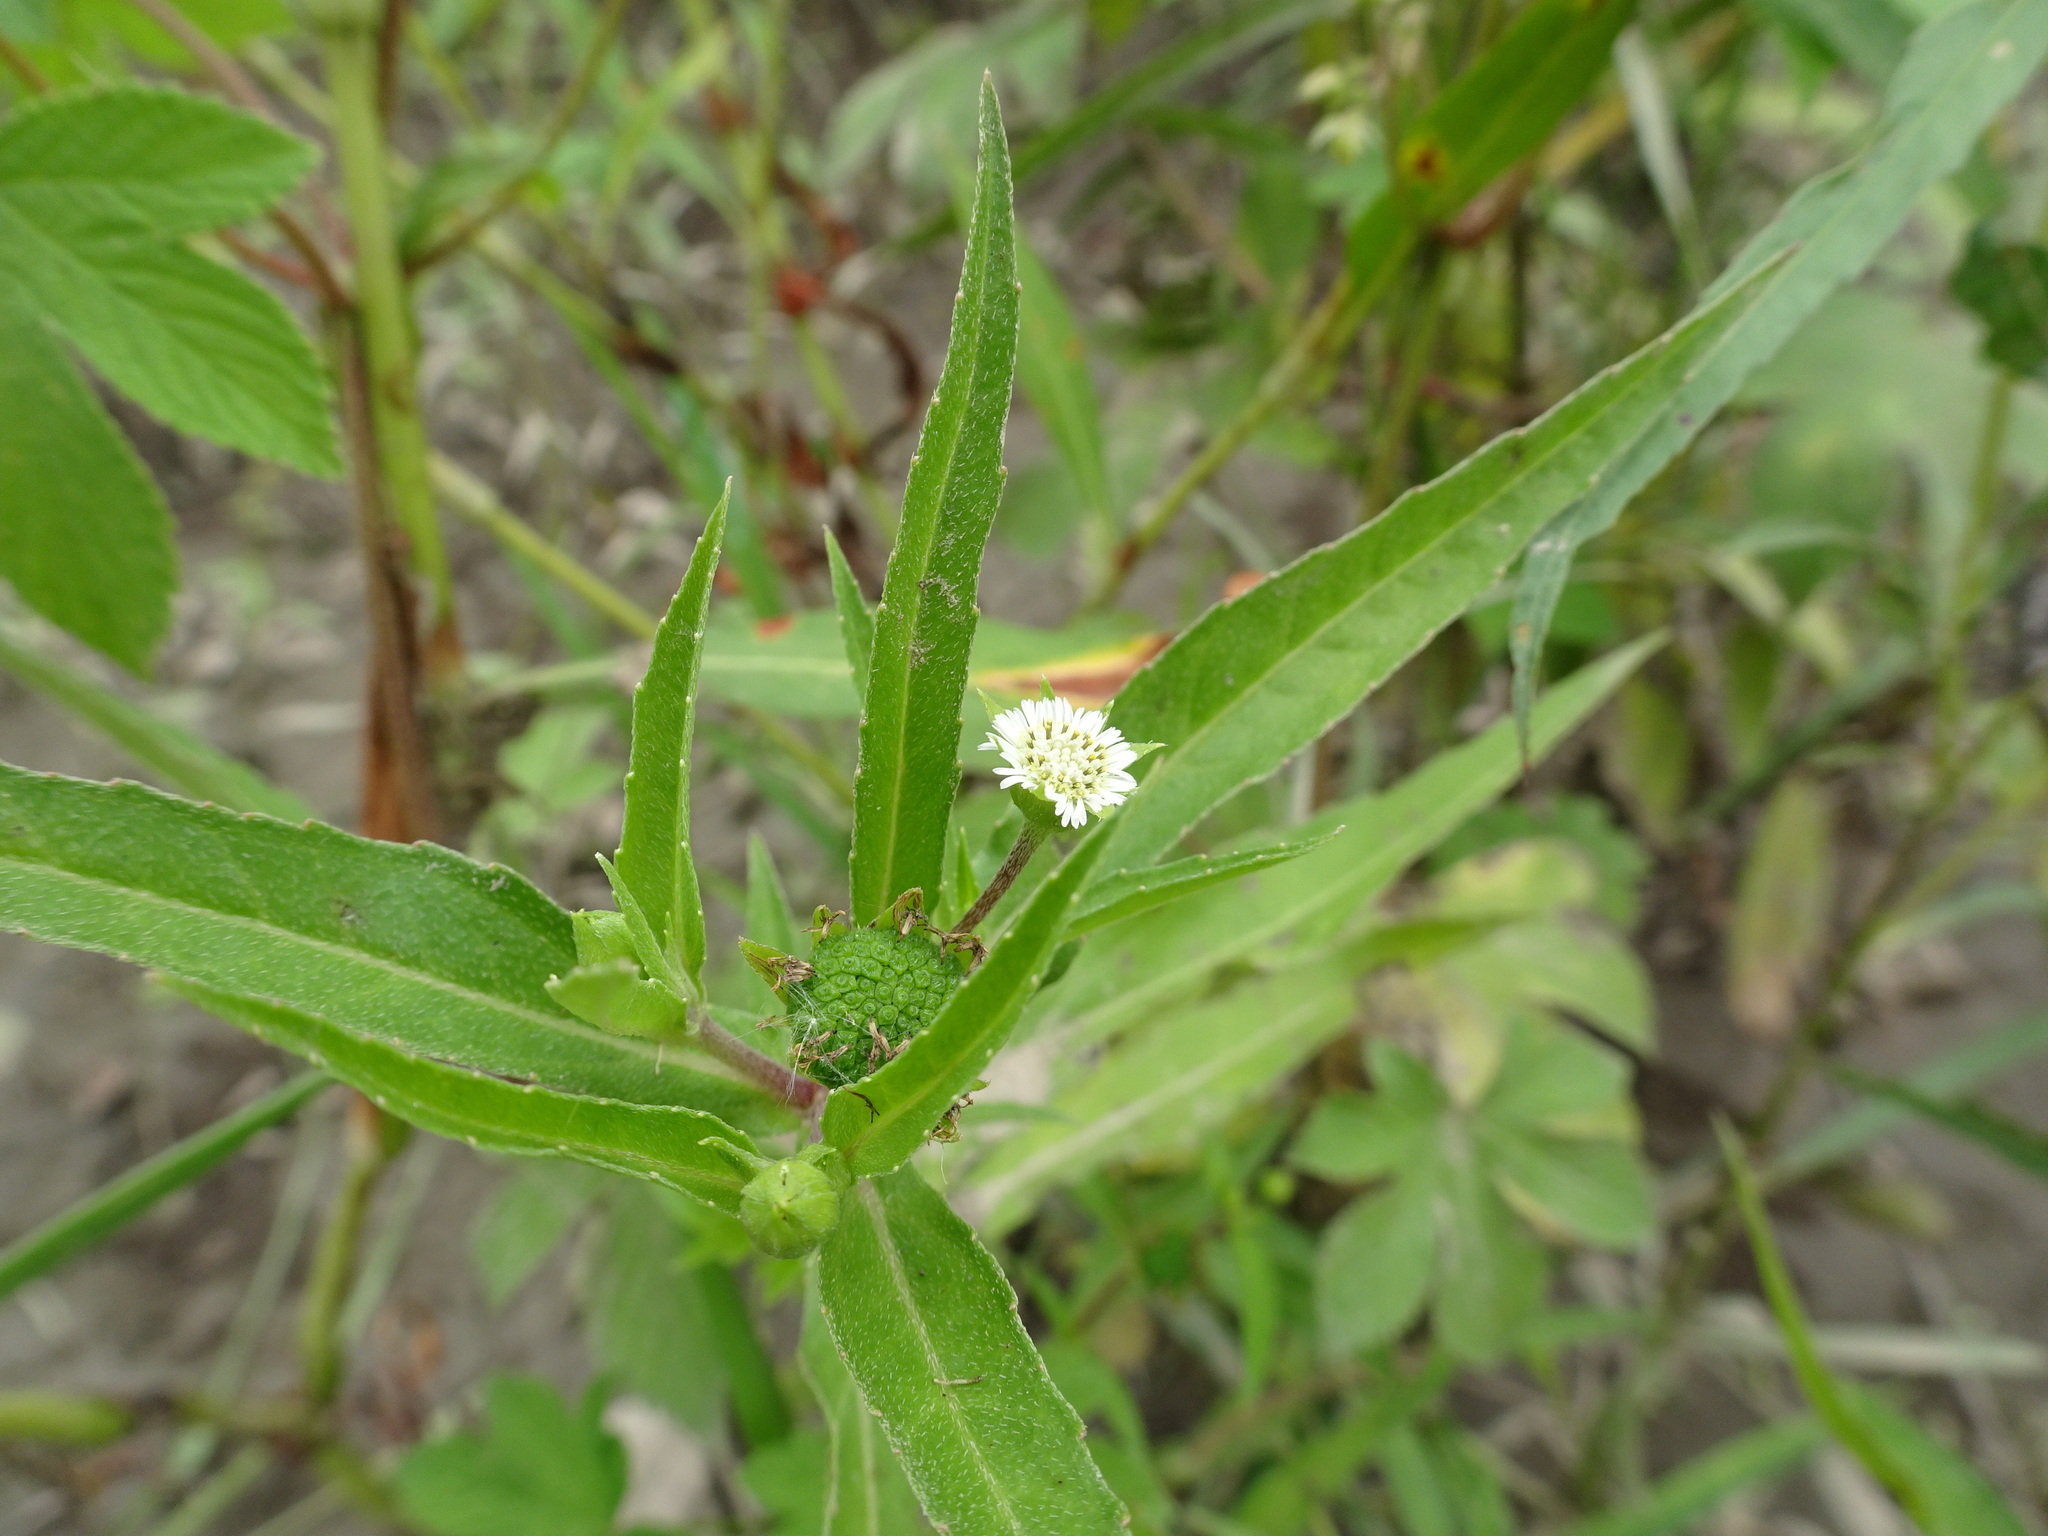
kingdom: Plantae
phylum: Tracheophyta
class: Magnoliopsida
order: Asterales
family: Asteraceae
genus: Eclipta
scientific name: Eclipta prostrata
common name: False daisy
